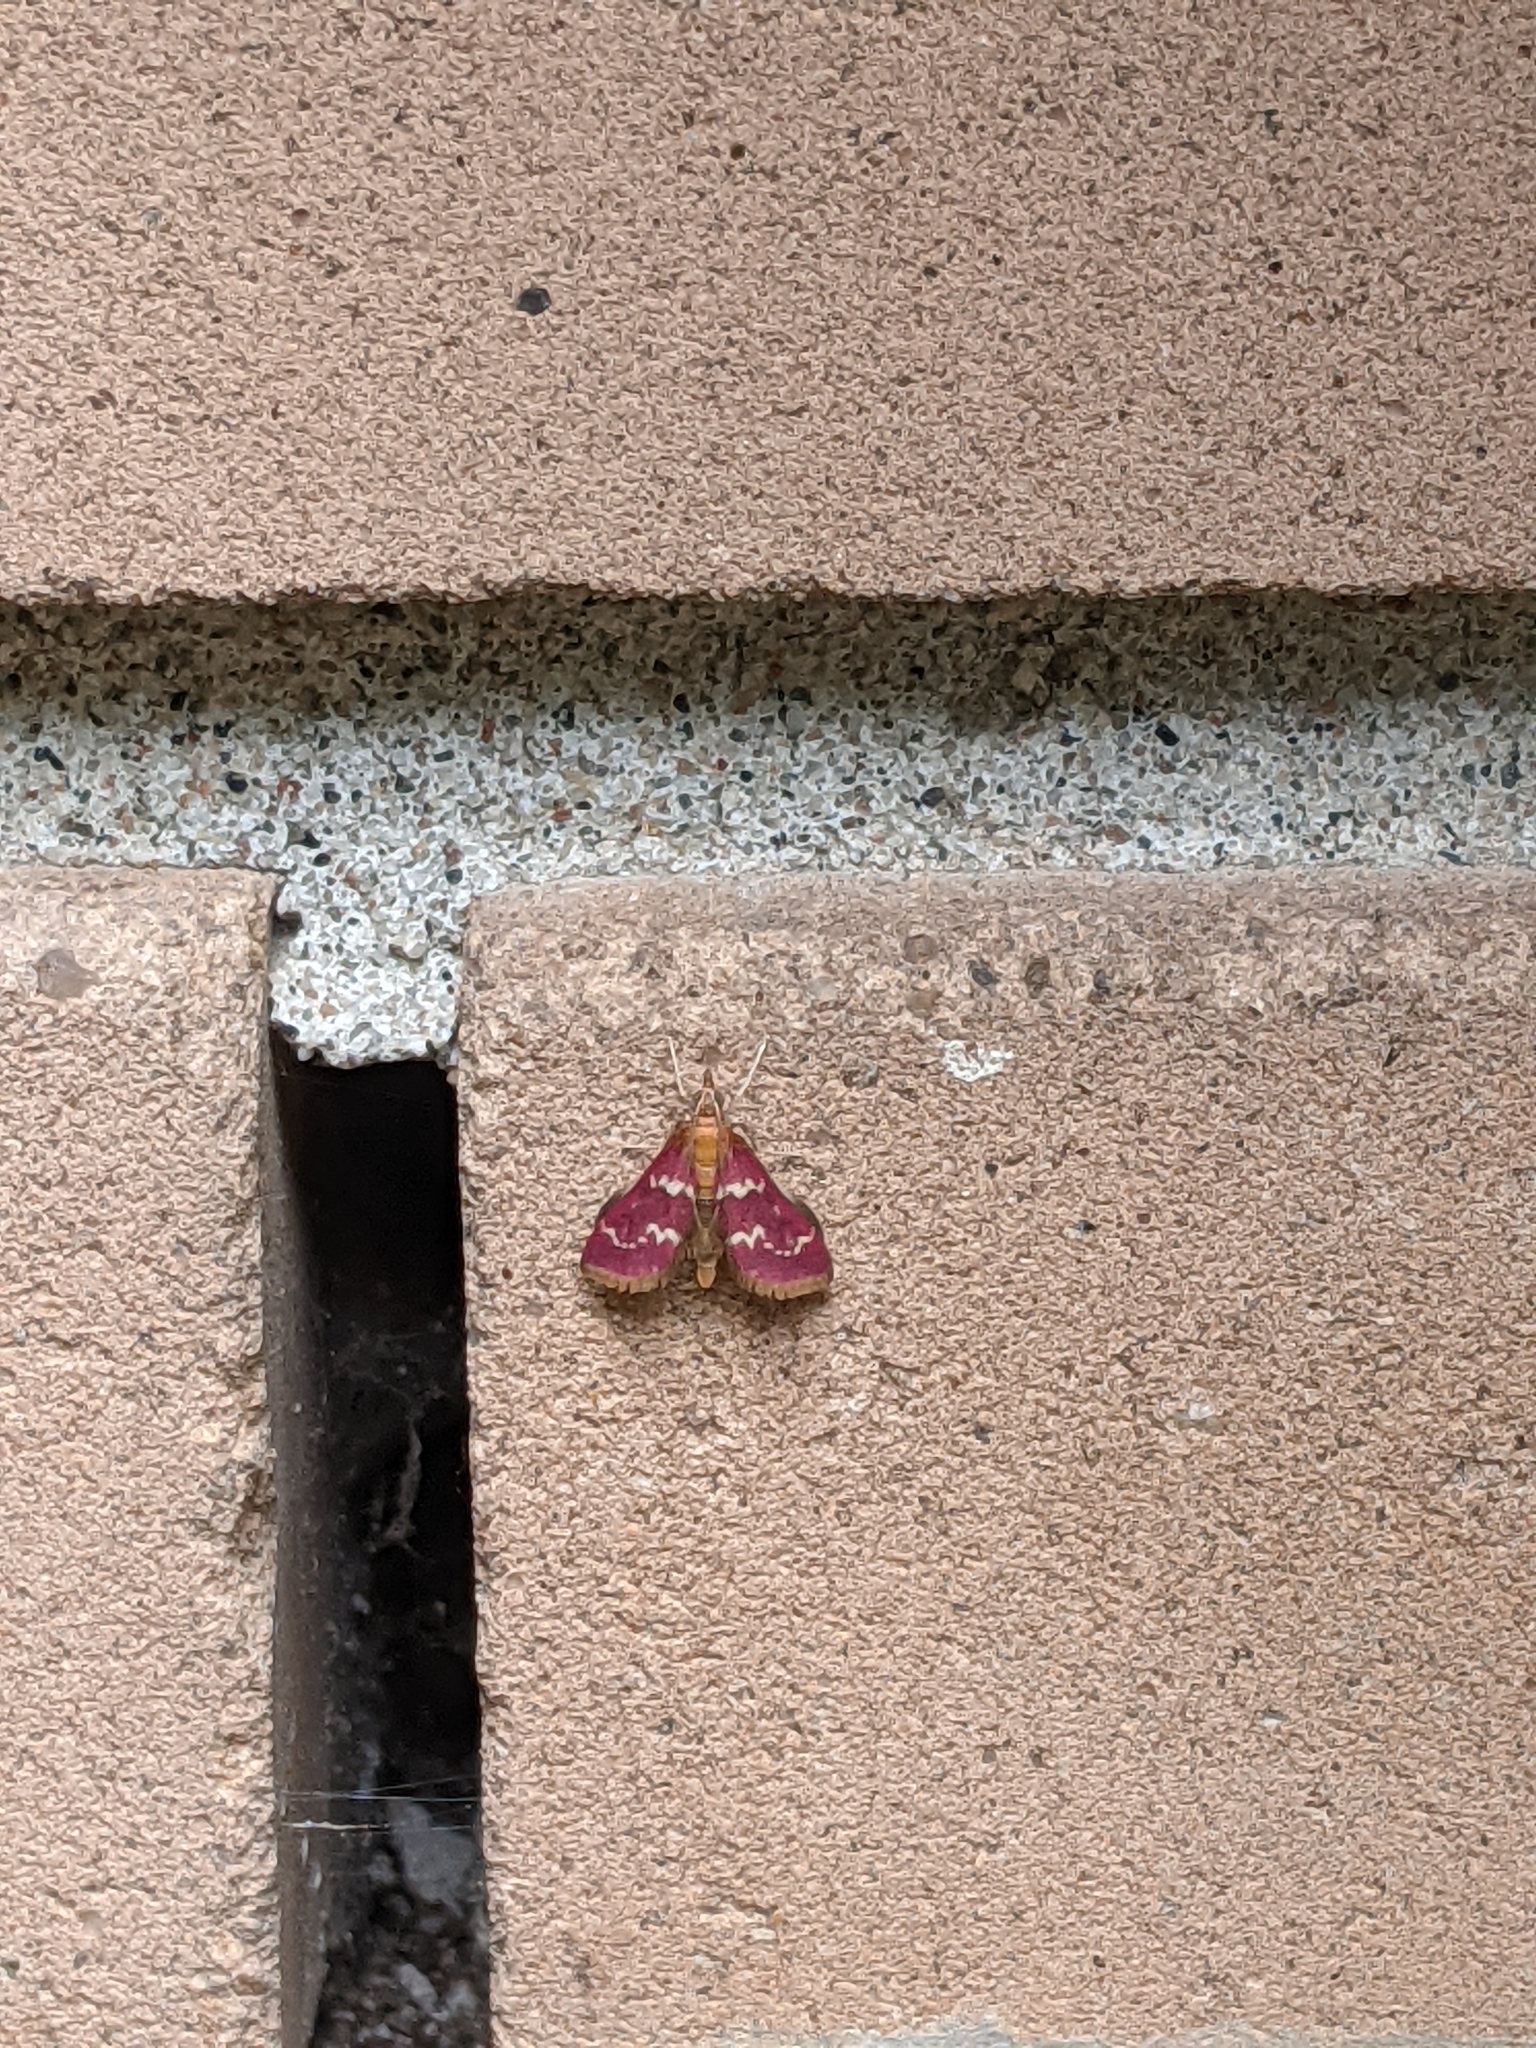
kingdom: Animalia
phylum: Arthropoda
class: Insecta
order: Lepidoptera
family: Crambidae
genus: Pyrausta
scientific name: Pyrausta signatalis
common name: Raspberry pyrausta moth
